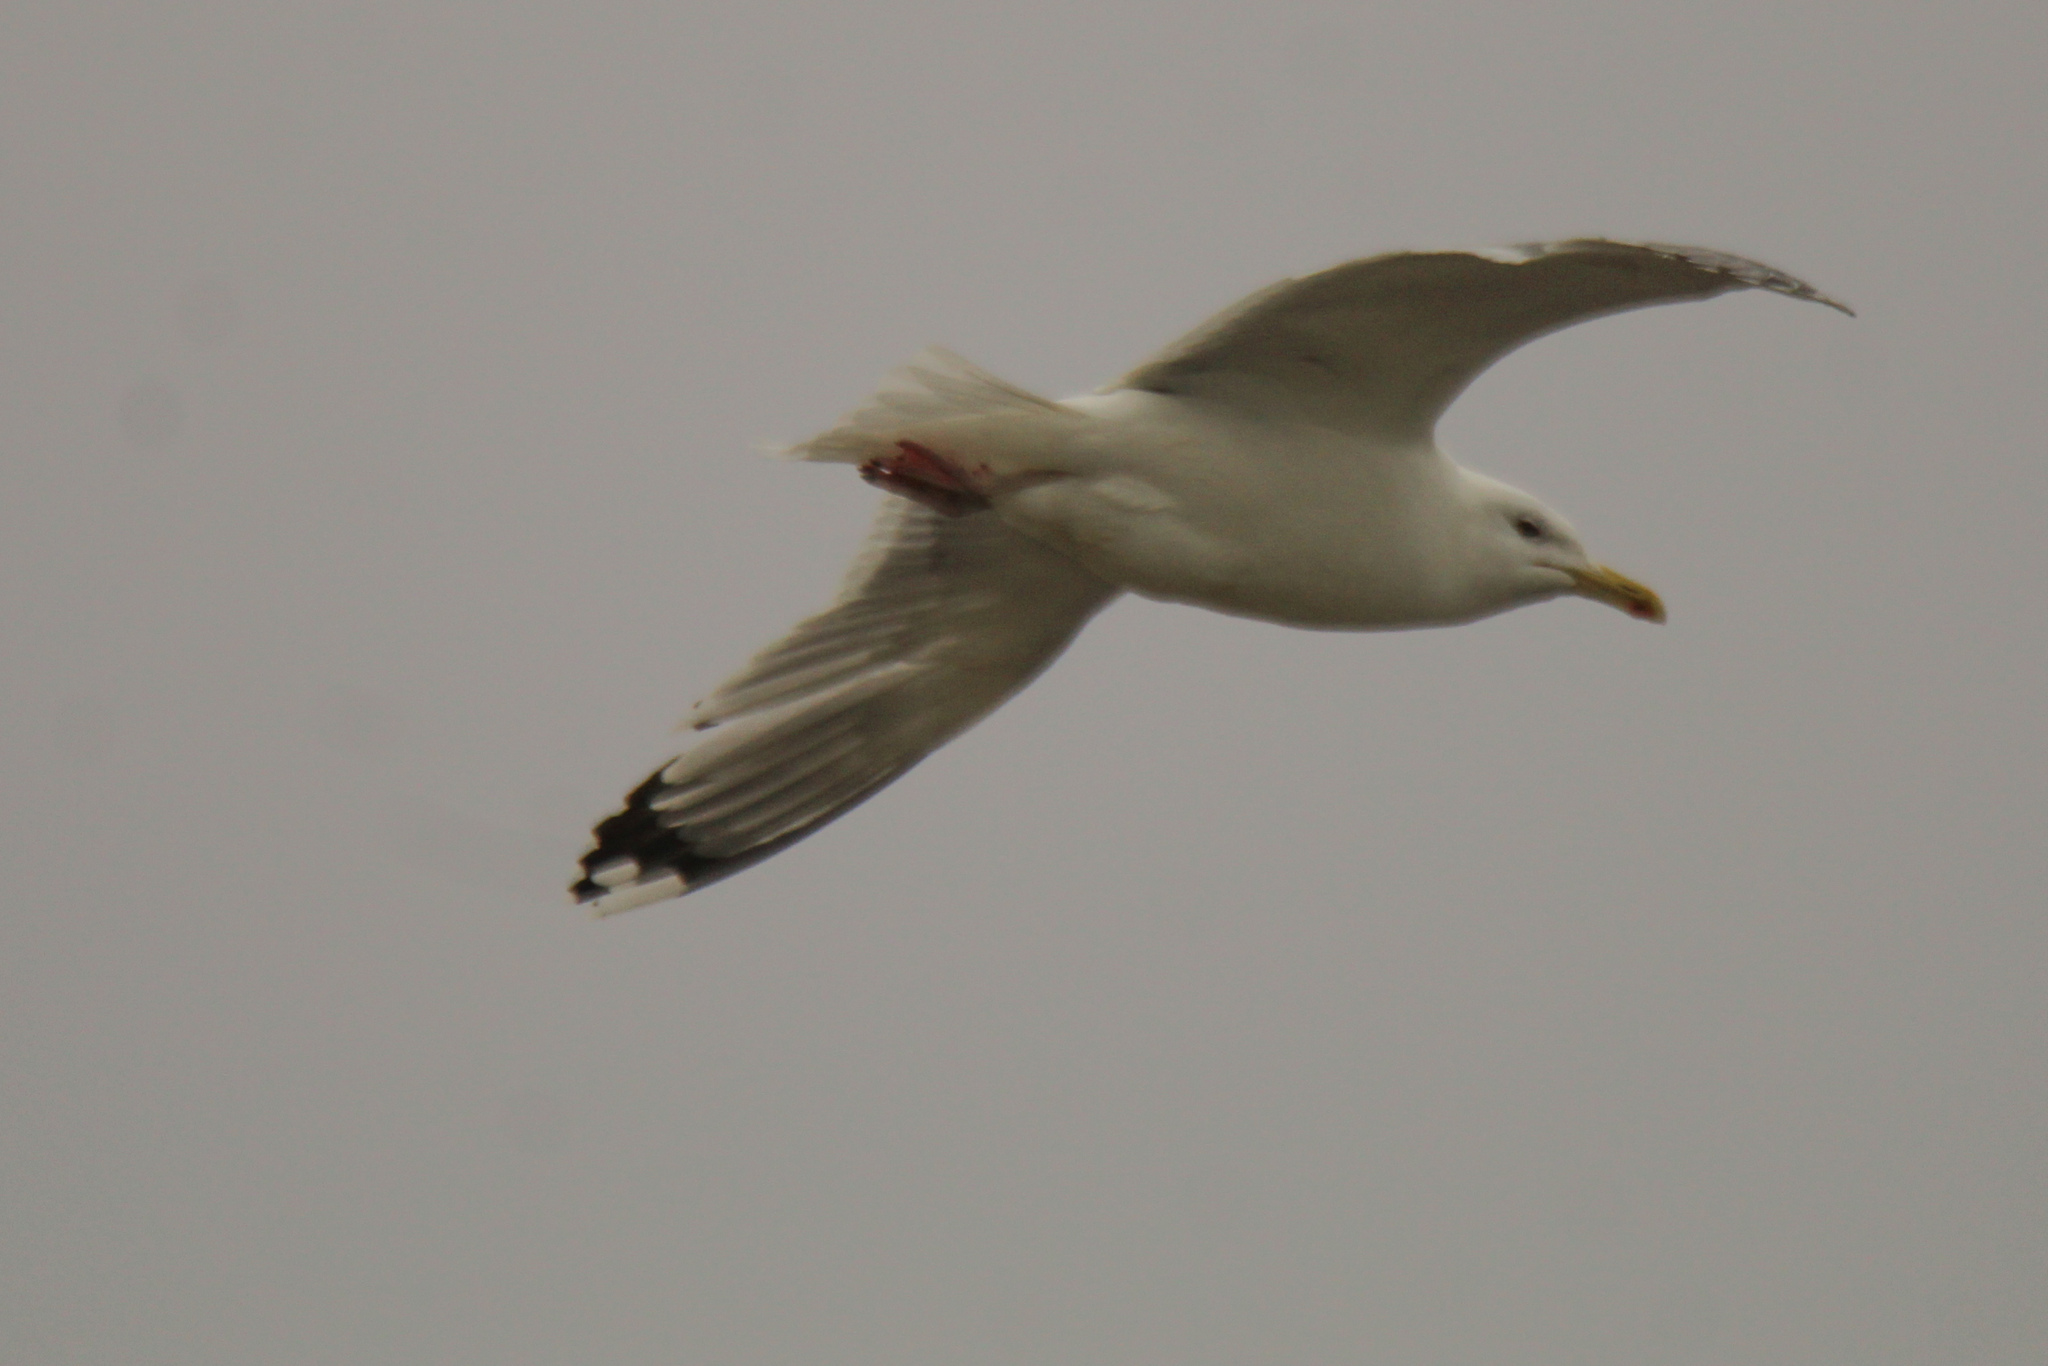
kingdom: Animalia
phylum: Chordata
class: Aves
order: Charadriiformes
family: Laridae
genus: Larus
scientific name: Larus cachinnans
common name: Caspian gull
